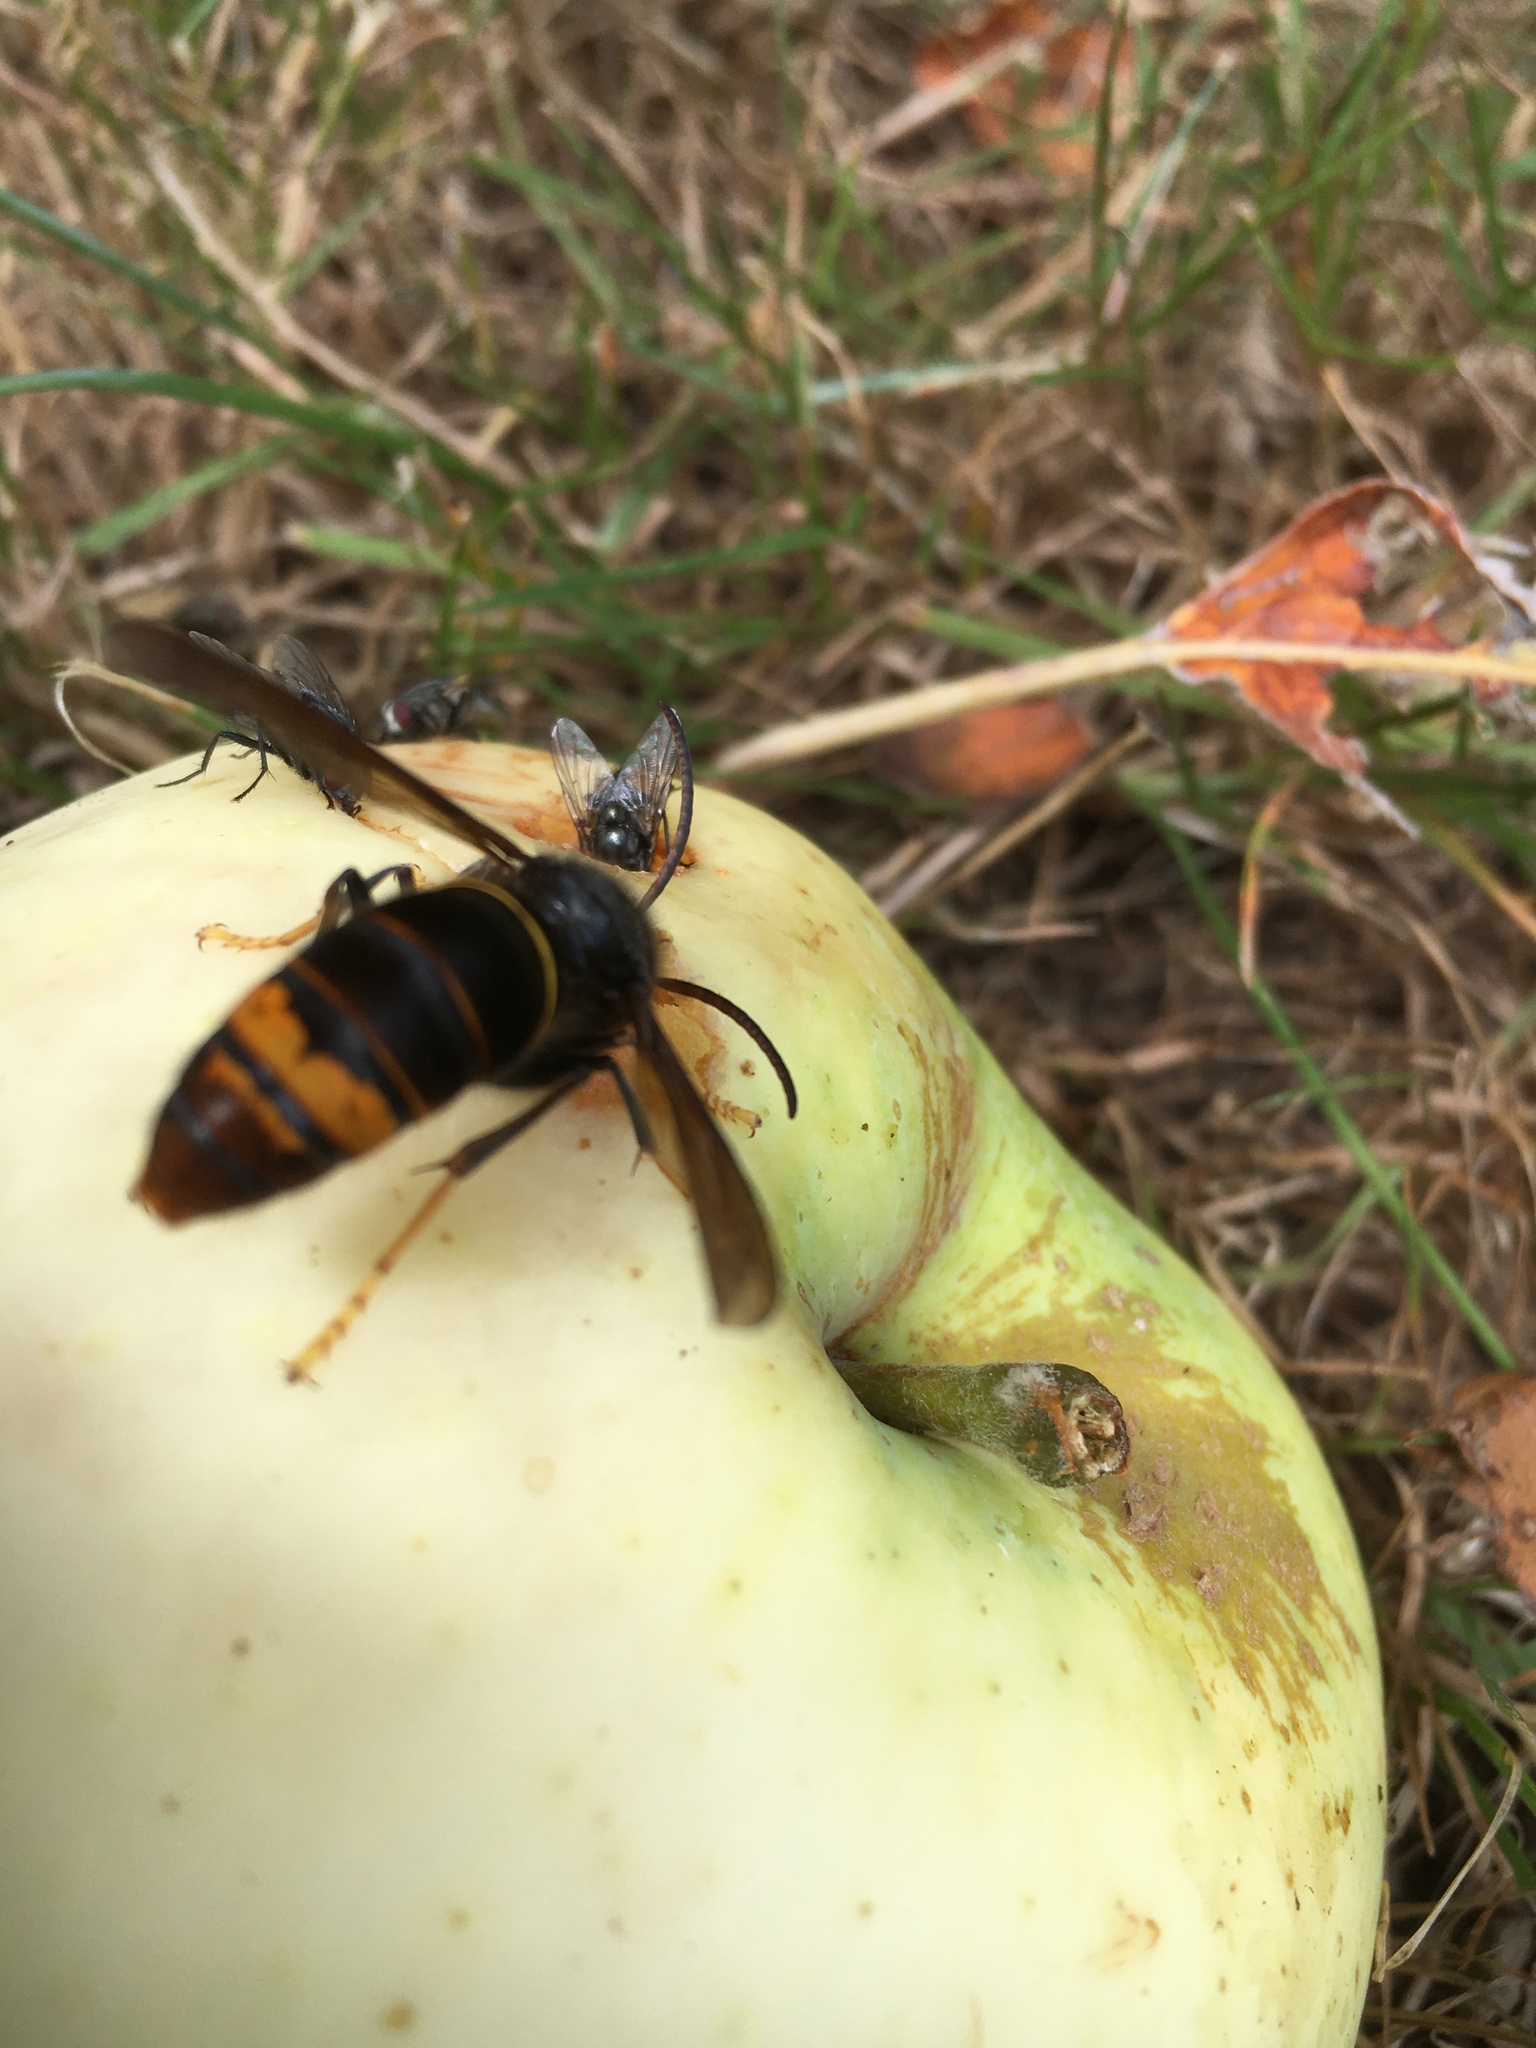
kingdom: Animalia
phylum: Arthropoda
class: Insecta
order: Hymenoptera
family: Vespidae
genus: Vespa
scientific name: Vespa velutina
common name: Asian hornet
